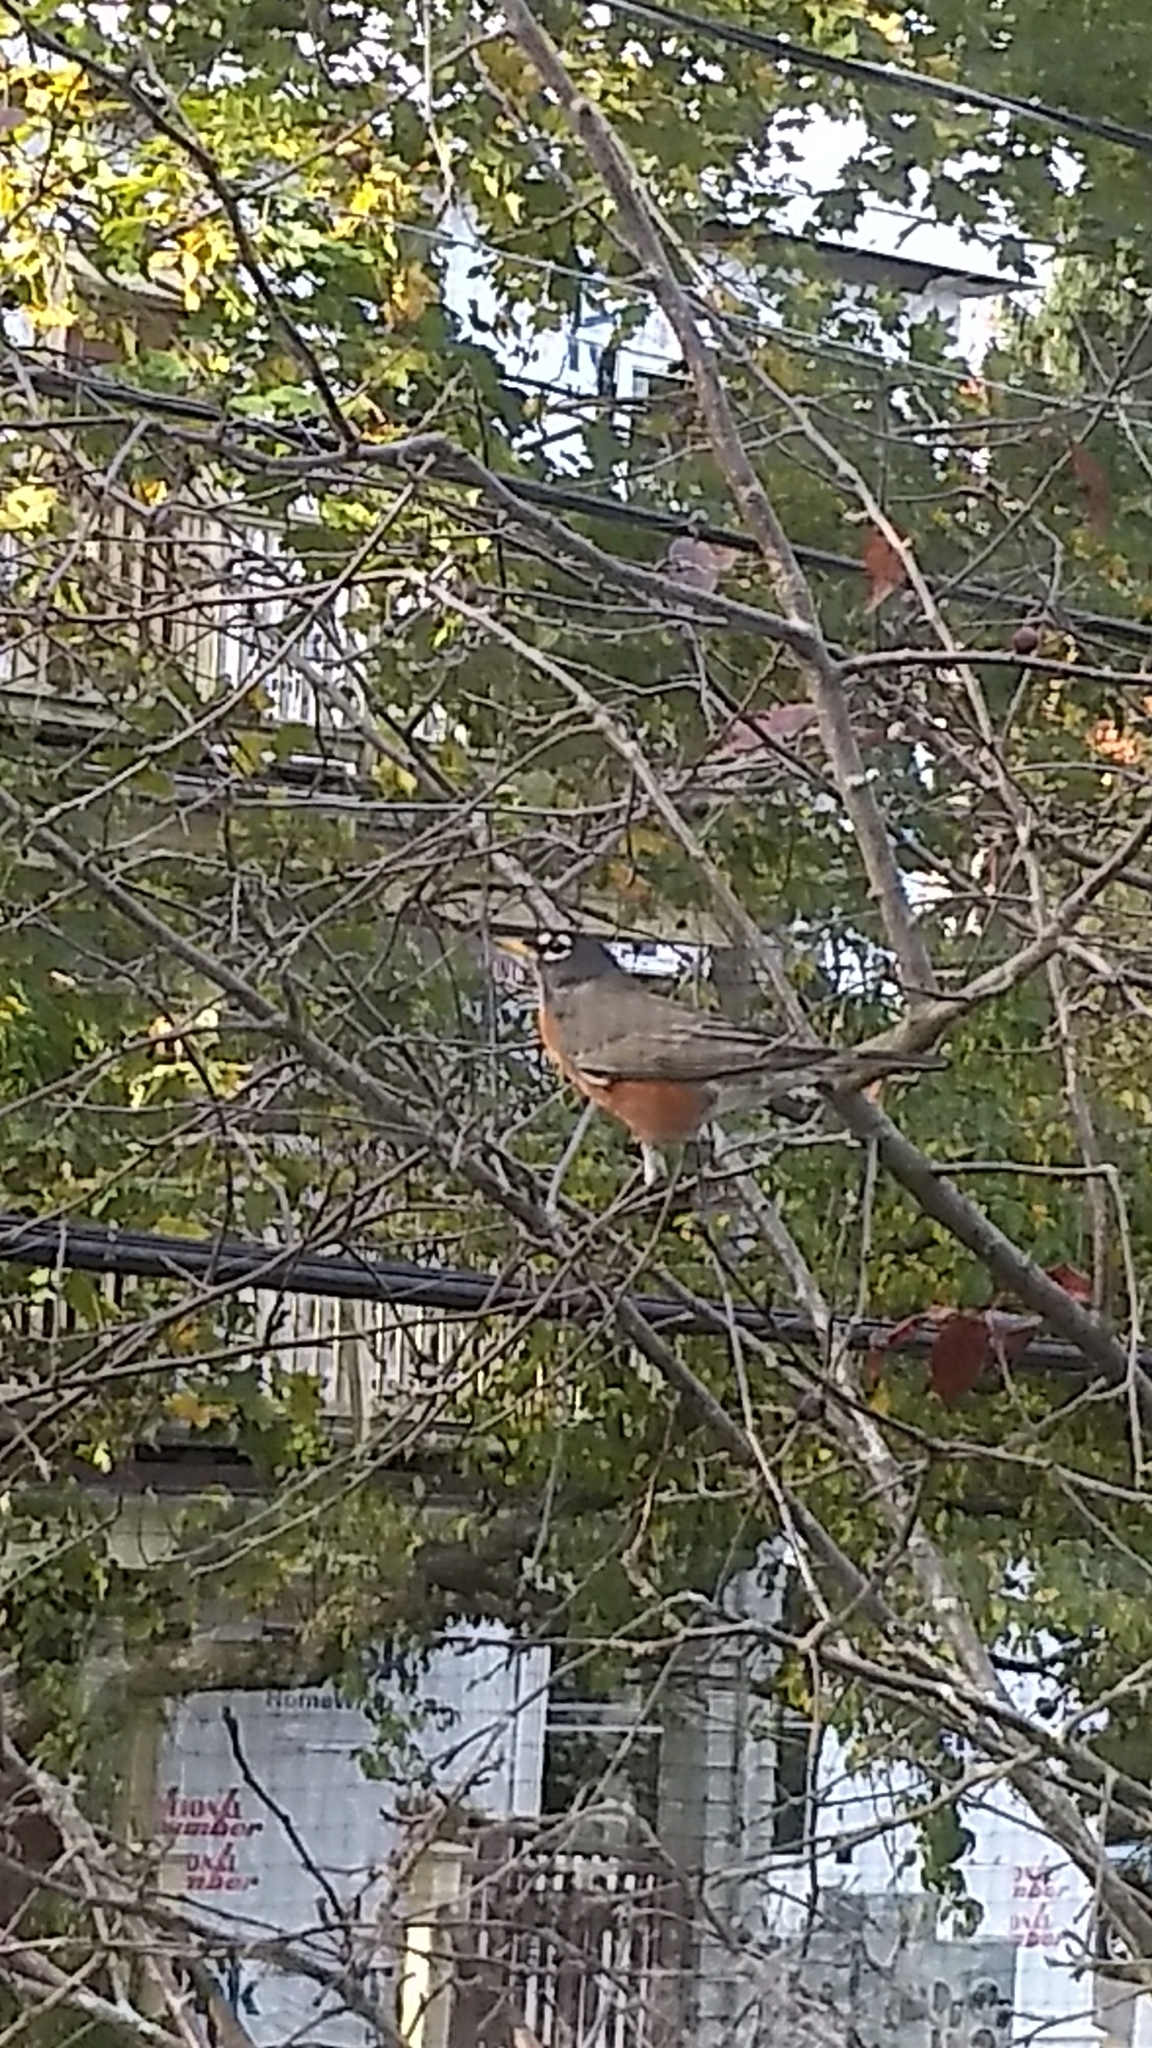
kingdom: Animalia
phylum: Chordata
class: Aves
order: Passeriformes
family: Turdidae
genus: Turdus
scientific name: Turdus migratorius
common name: American robin
